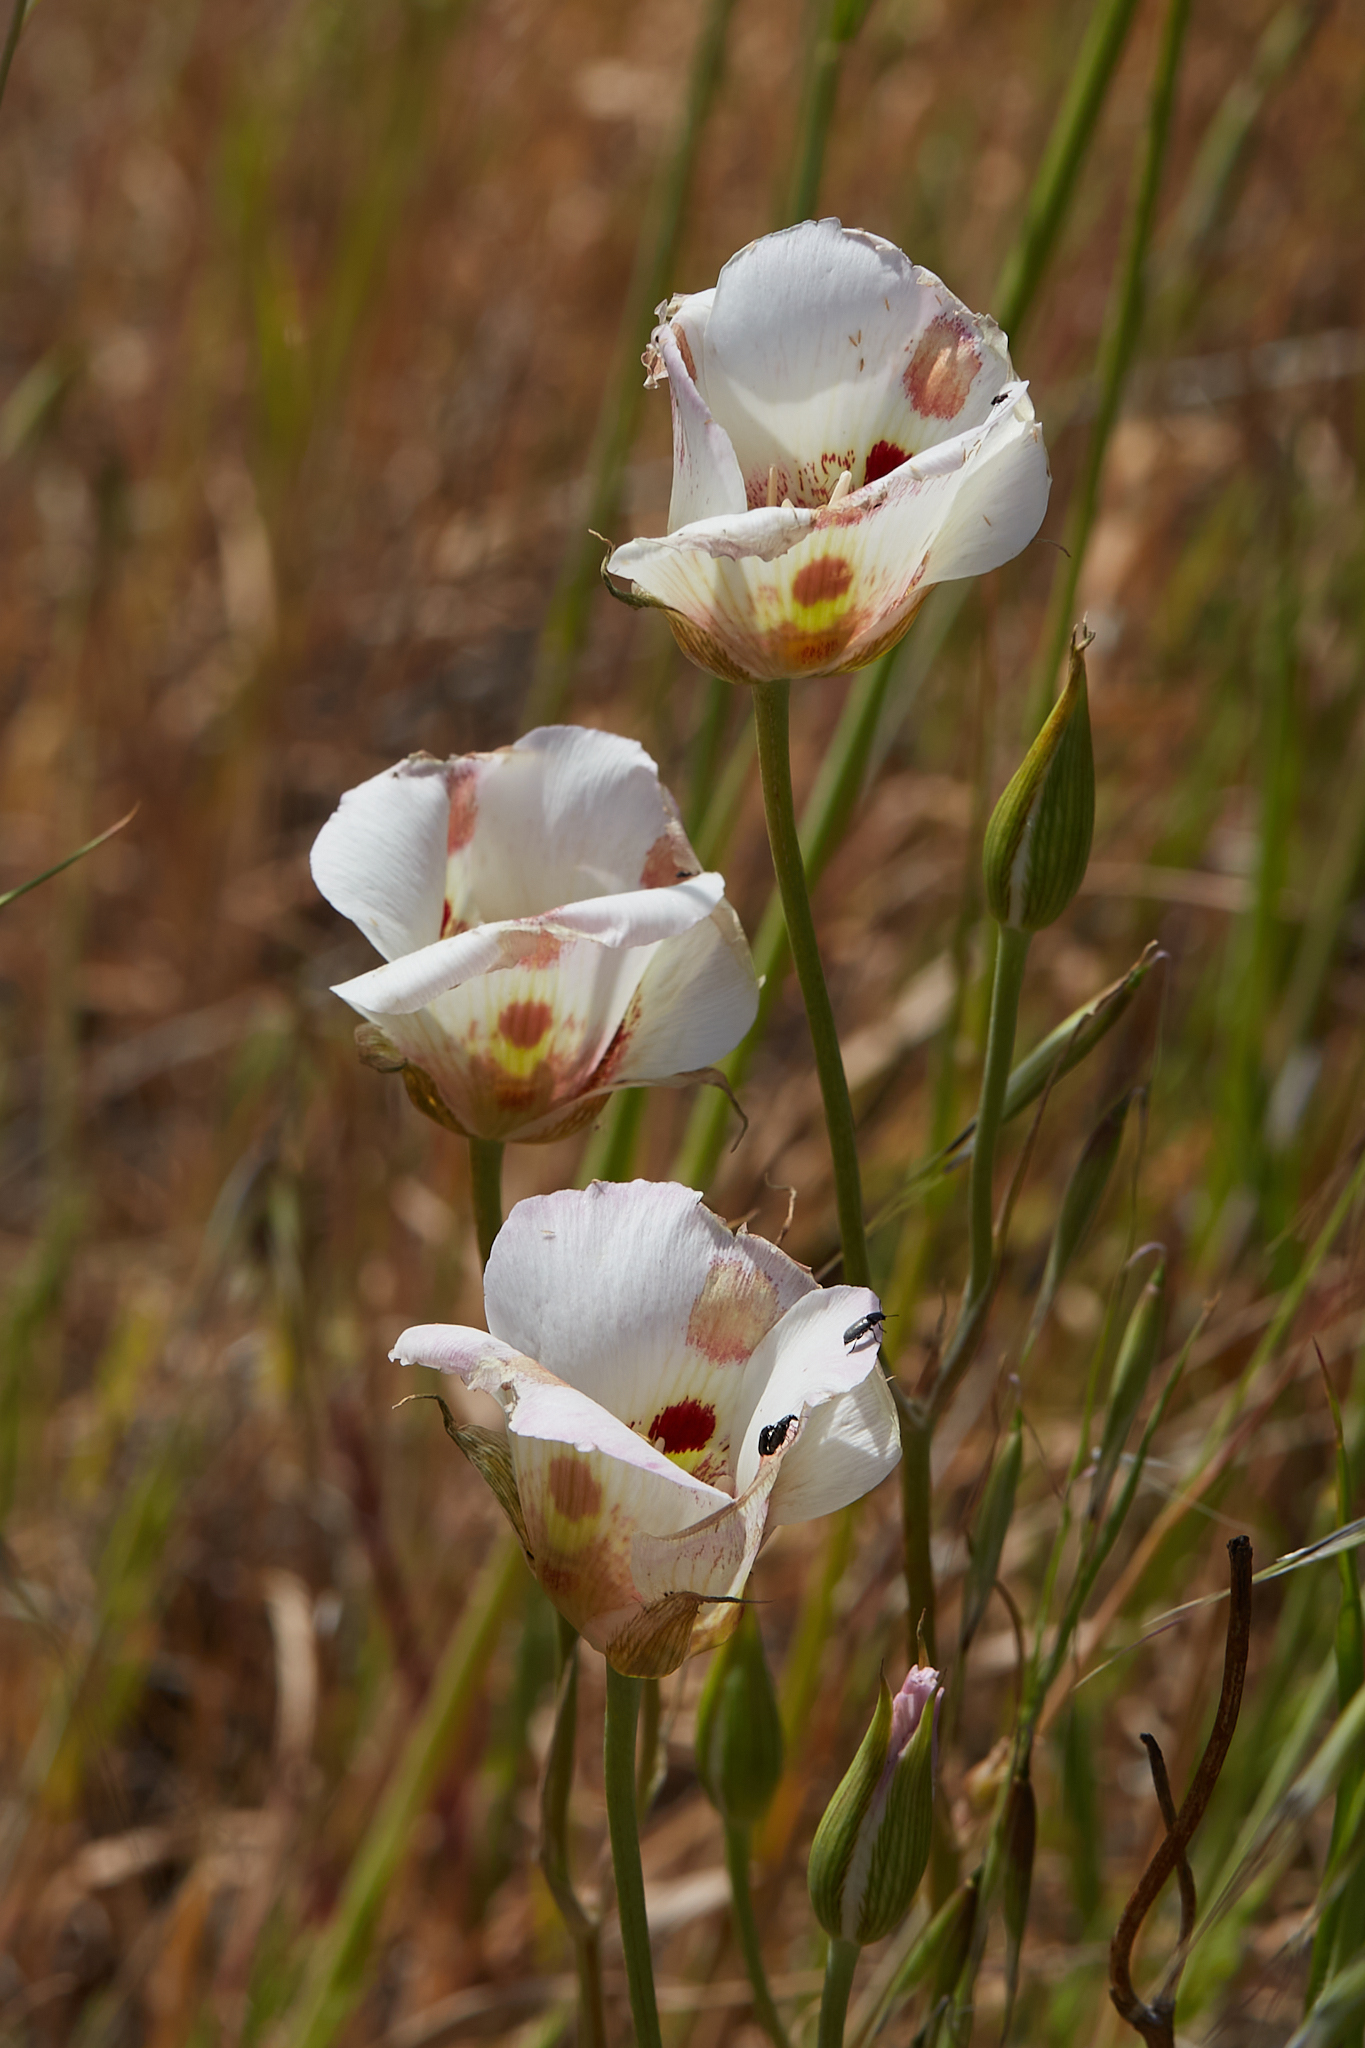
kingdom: Plantae
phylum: Tracheophyta
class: Liliopsida
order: Liliales
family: Liliaceae
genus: Calochortus
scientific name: Calochortus venustus
